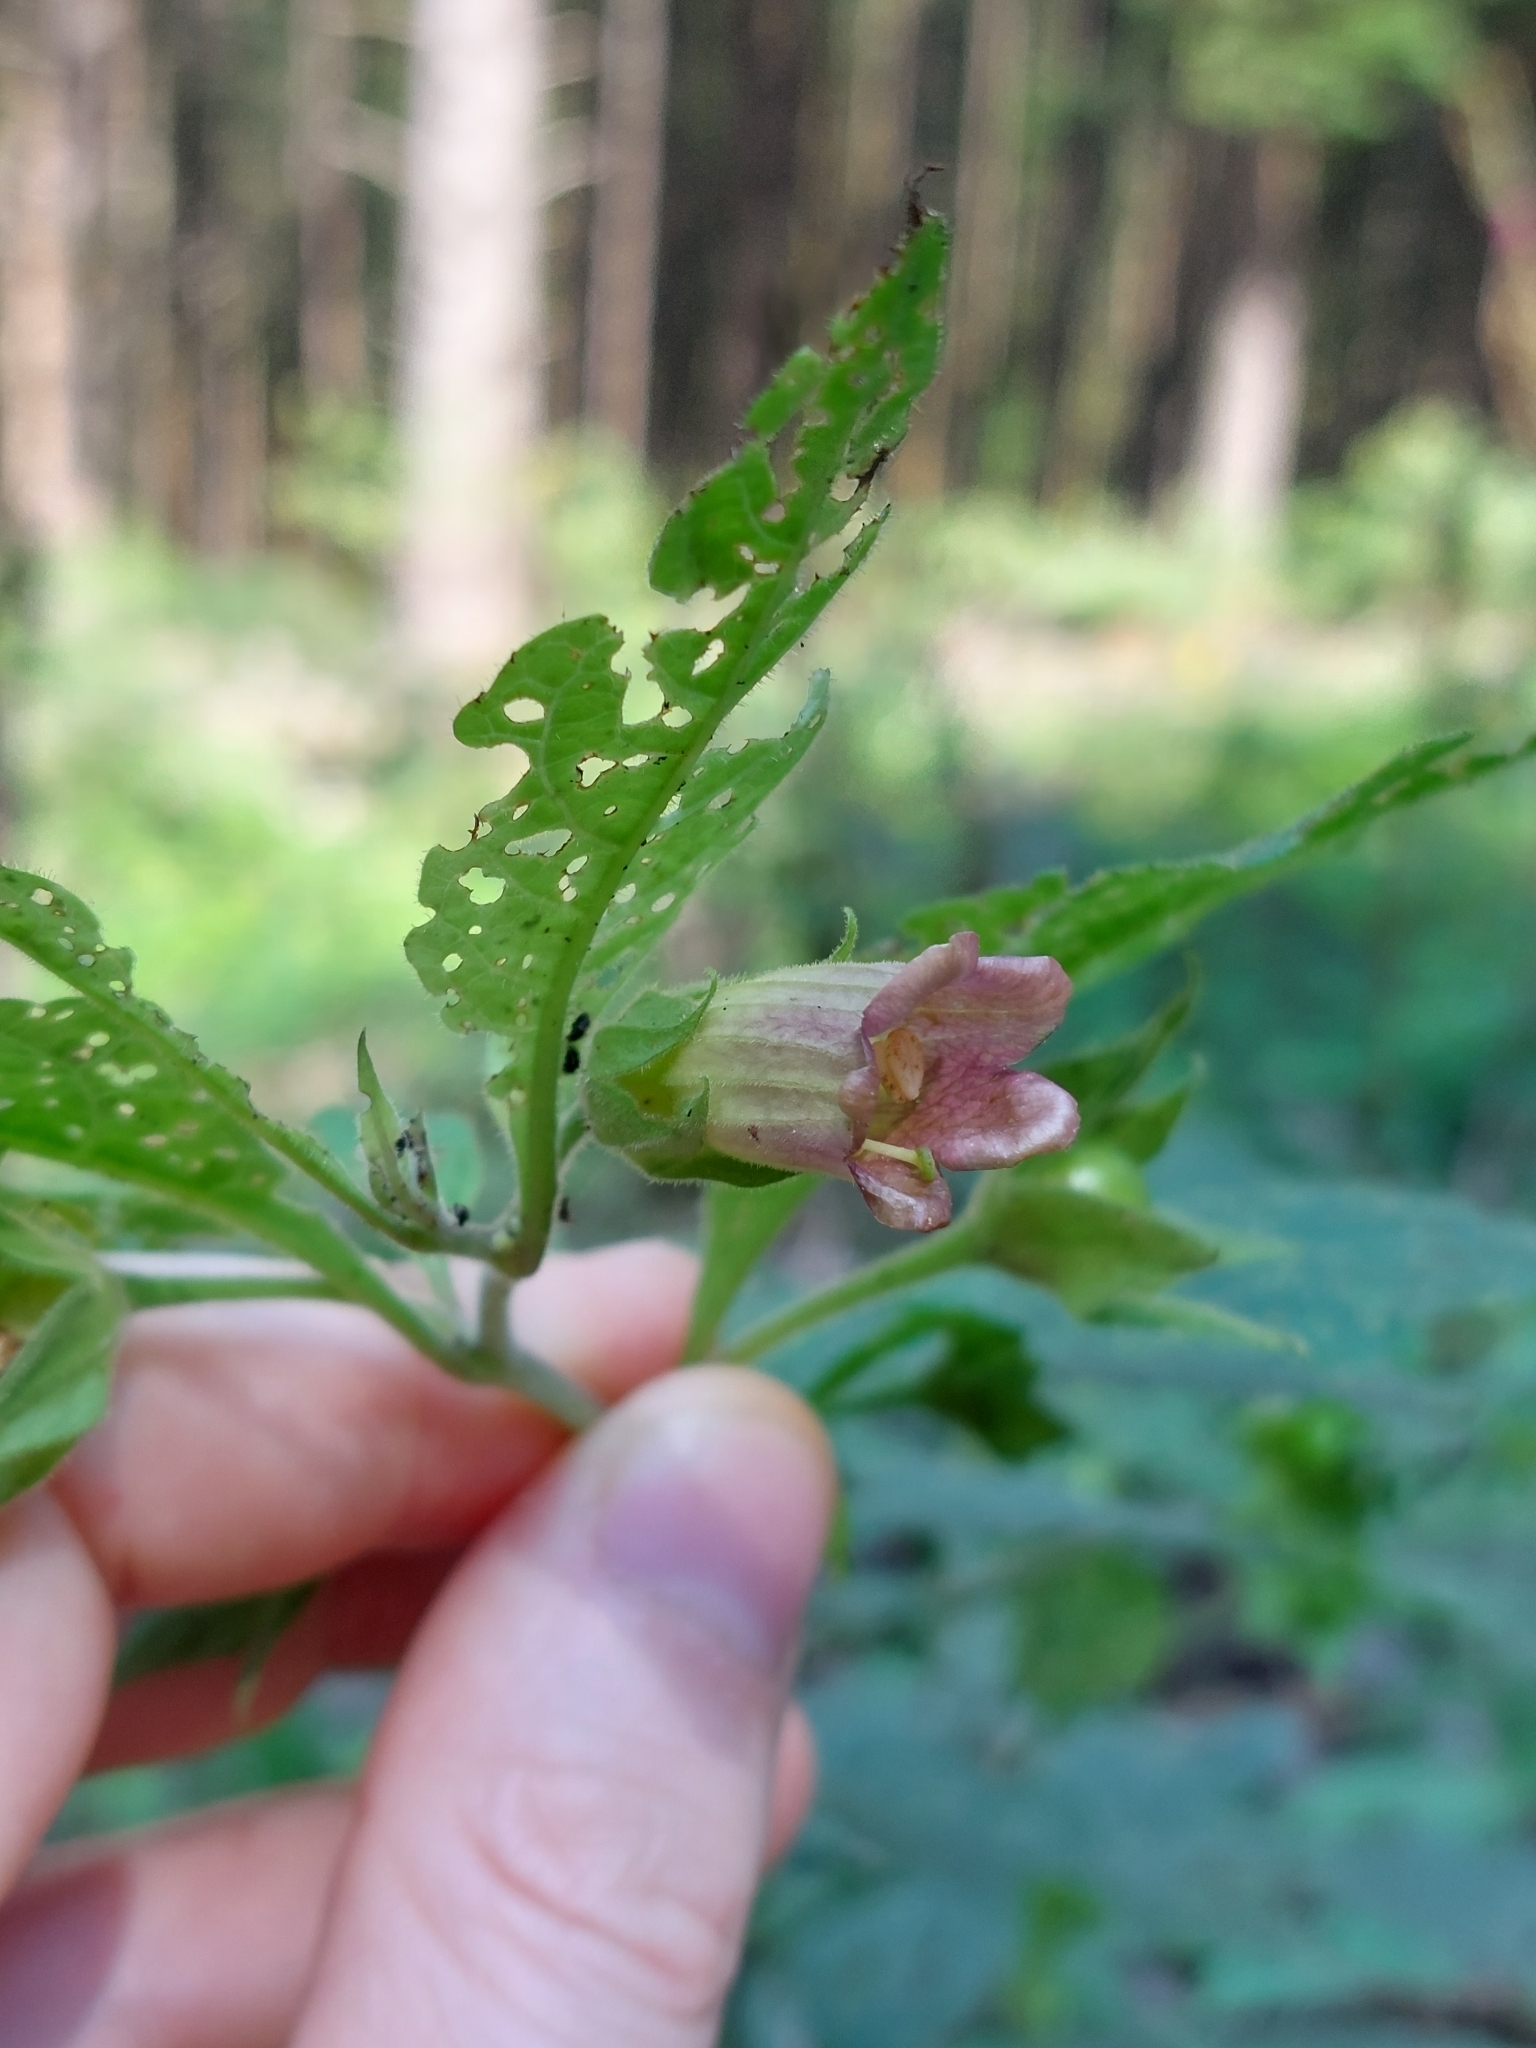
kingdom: Plantae
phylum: Tracheophyta
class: Magnoliopsida
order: Solanales
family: Solanaceae
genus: Atropa
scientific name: Atropa belladonna
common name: Deadly nightshade
